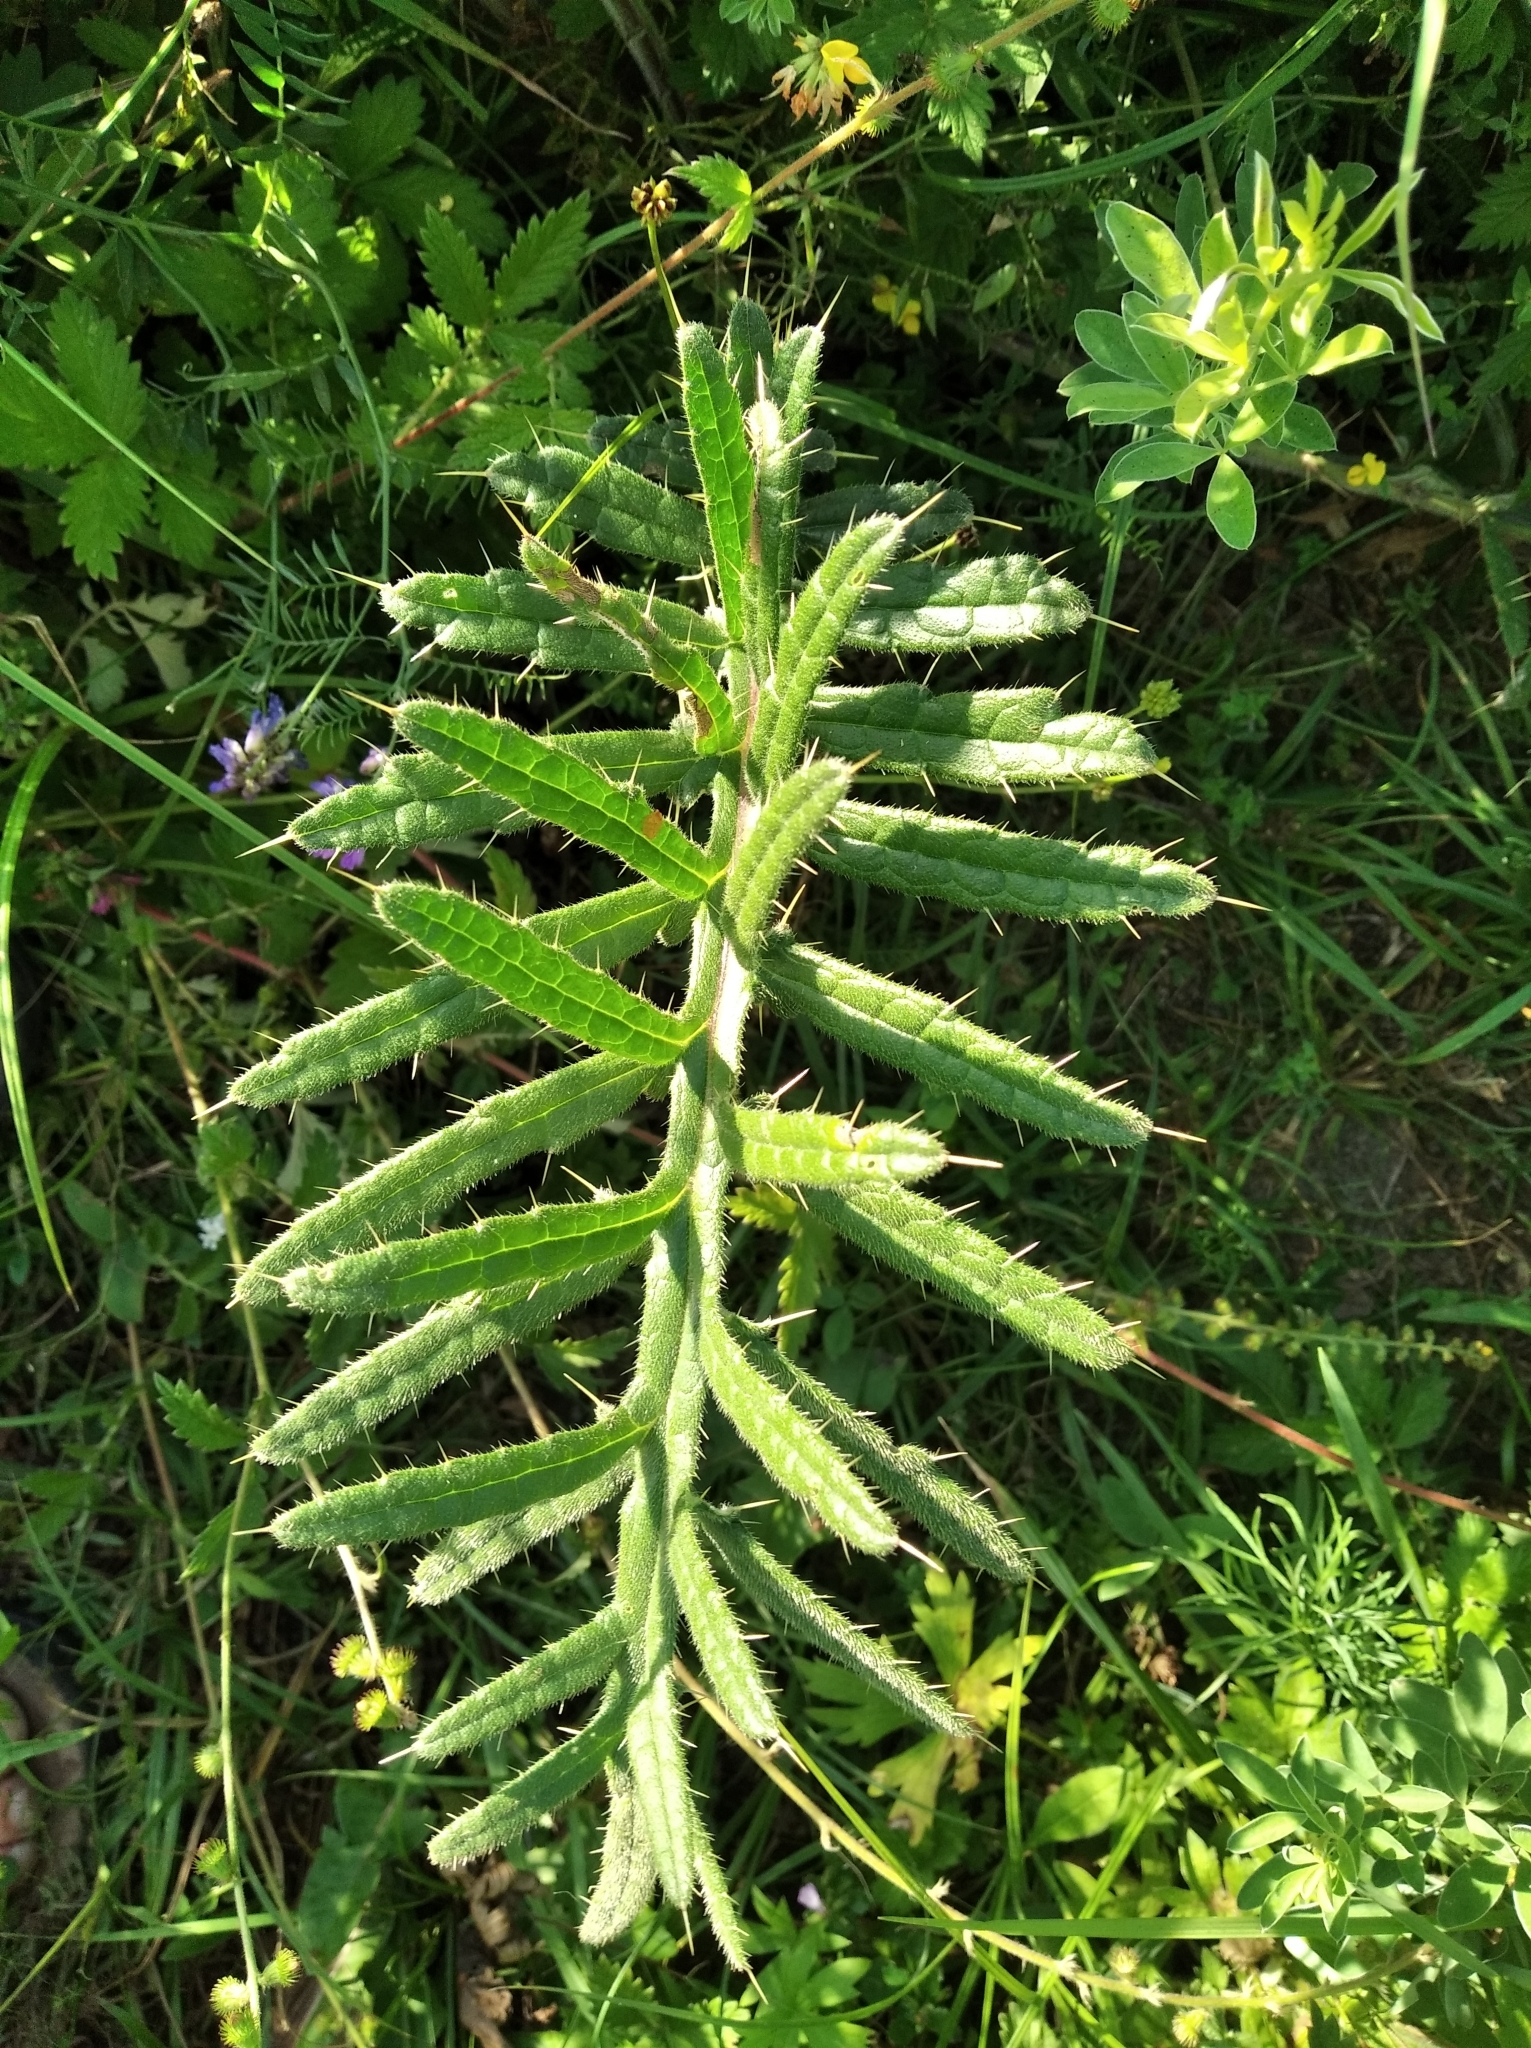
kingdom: Plantae
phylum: Tracheophyta
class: Magnoliopsida
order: Asterales
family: Asteraceae
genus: Lophiolepis
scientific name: Lophiolepis decussata
